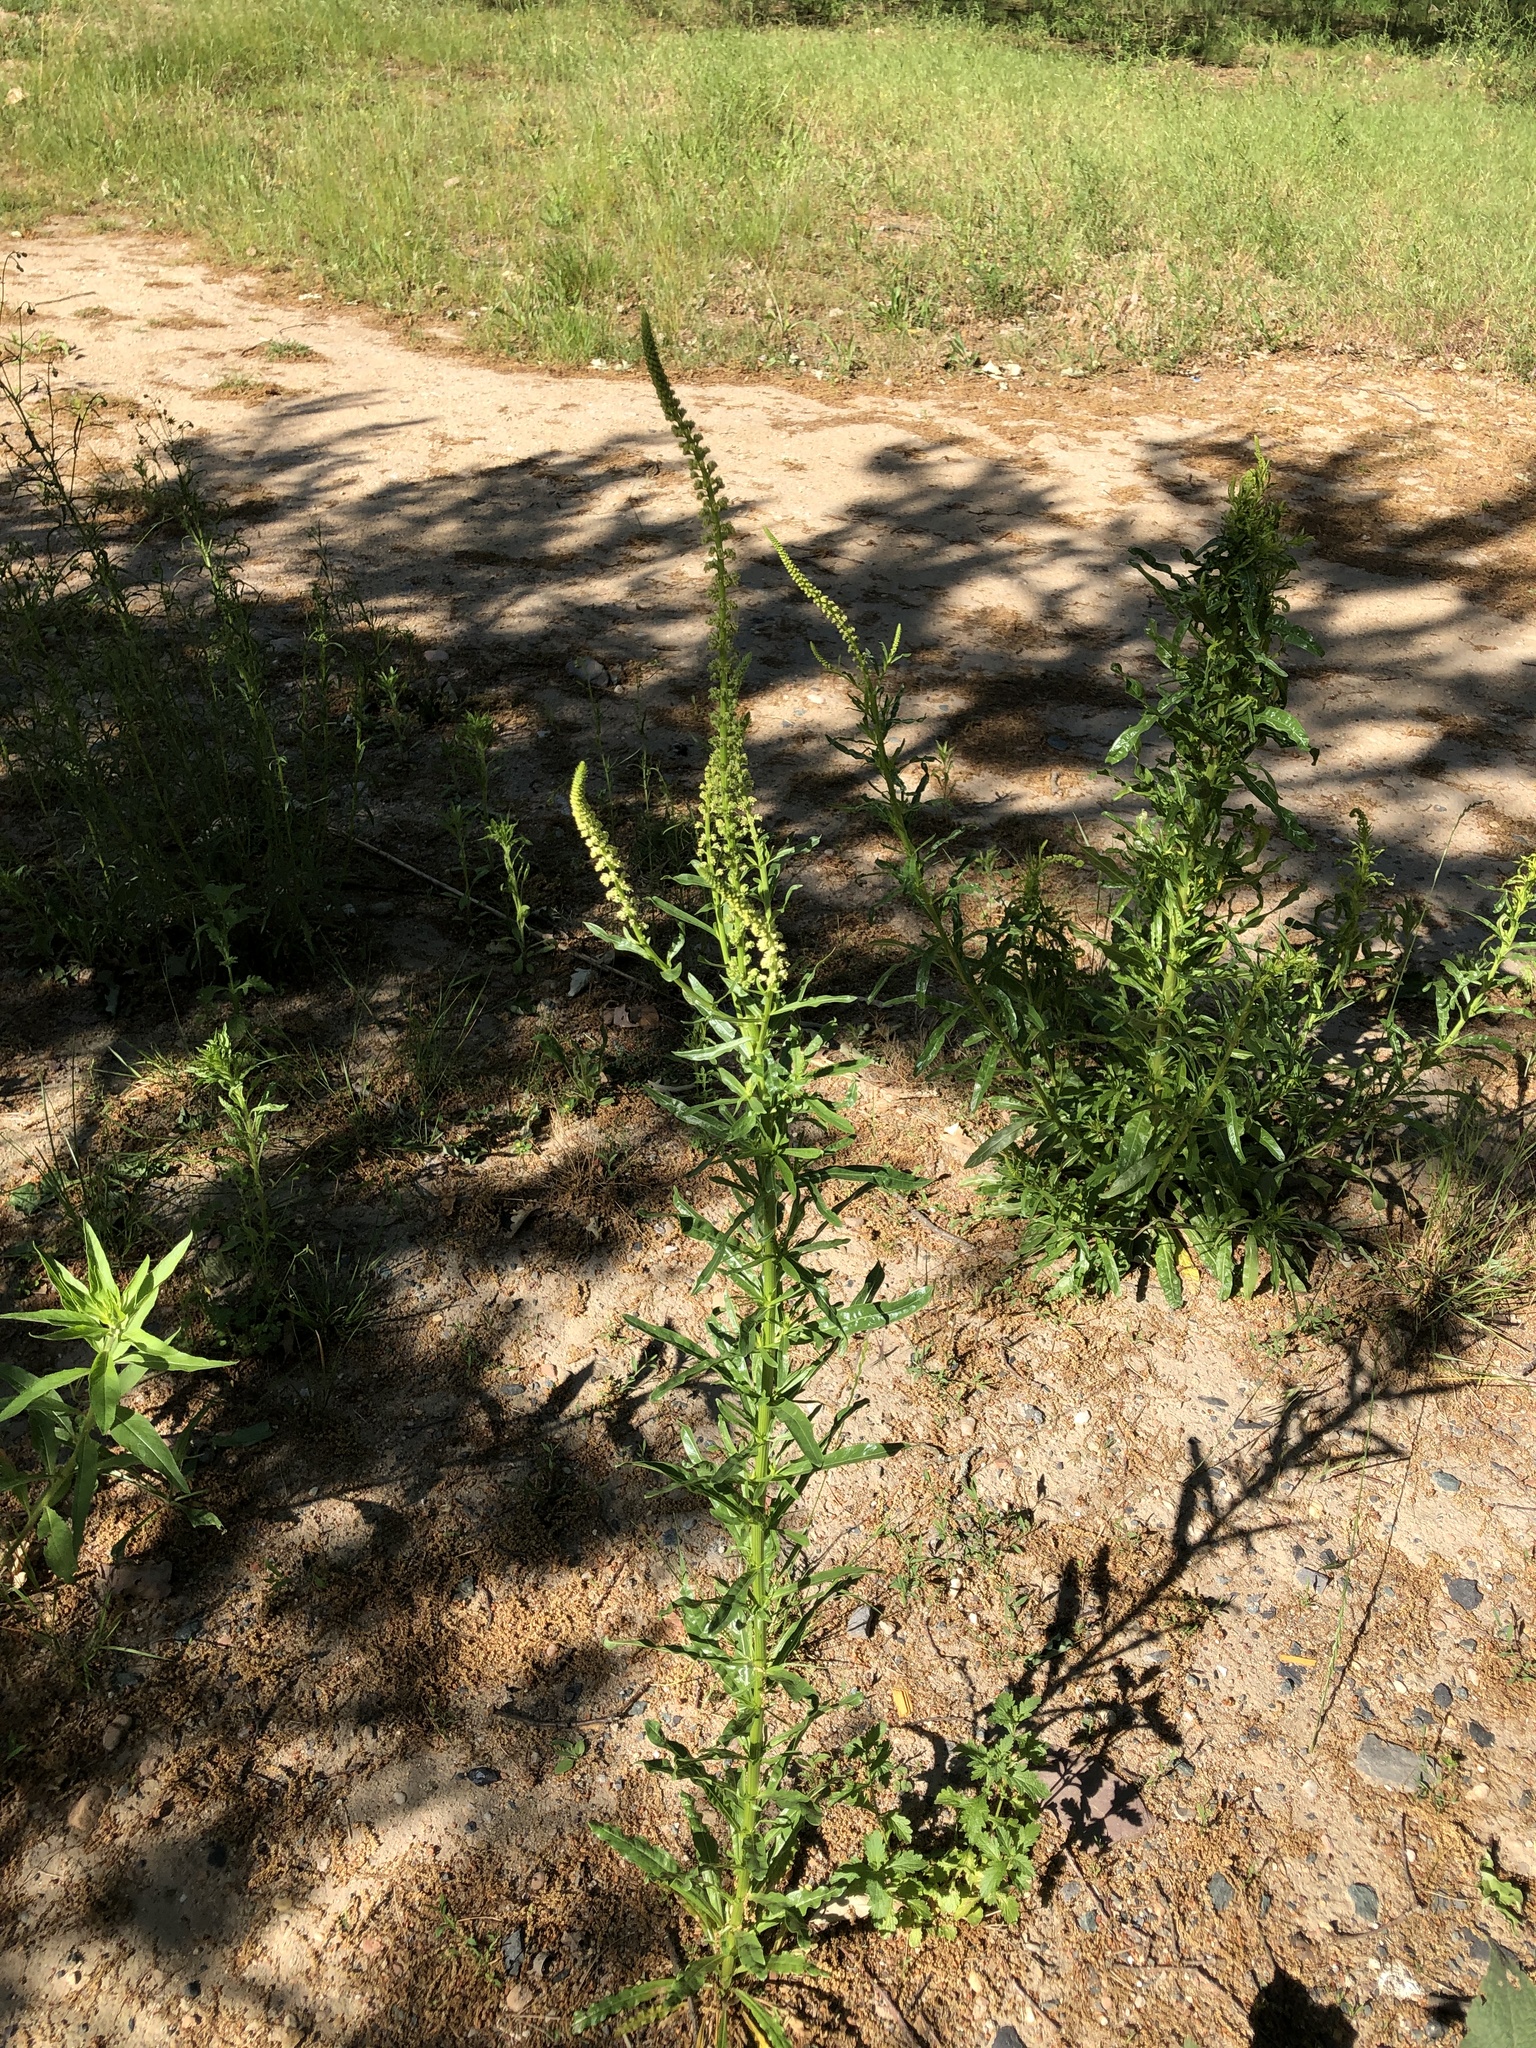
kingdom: Plantae
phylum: Tracheophyta
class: Magnoliopsida
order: Brassicales
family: Resedaceae
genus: Reseda
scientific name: Reseda luteola
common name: Weld
